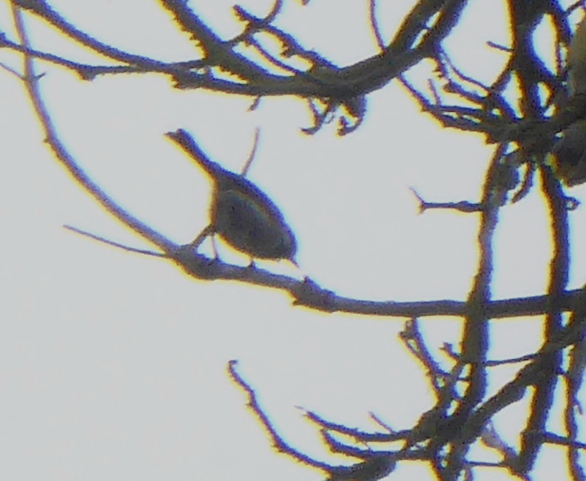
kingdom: Animalia
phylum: Chordata
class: Aves
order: Passeriformes
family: Paridae
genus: Poecile
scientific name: Poecile rufescens
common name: Chestnut-backed chickadee
